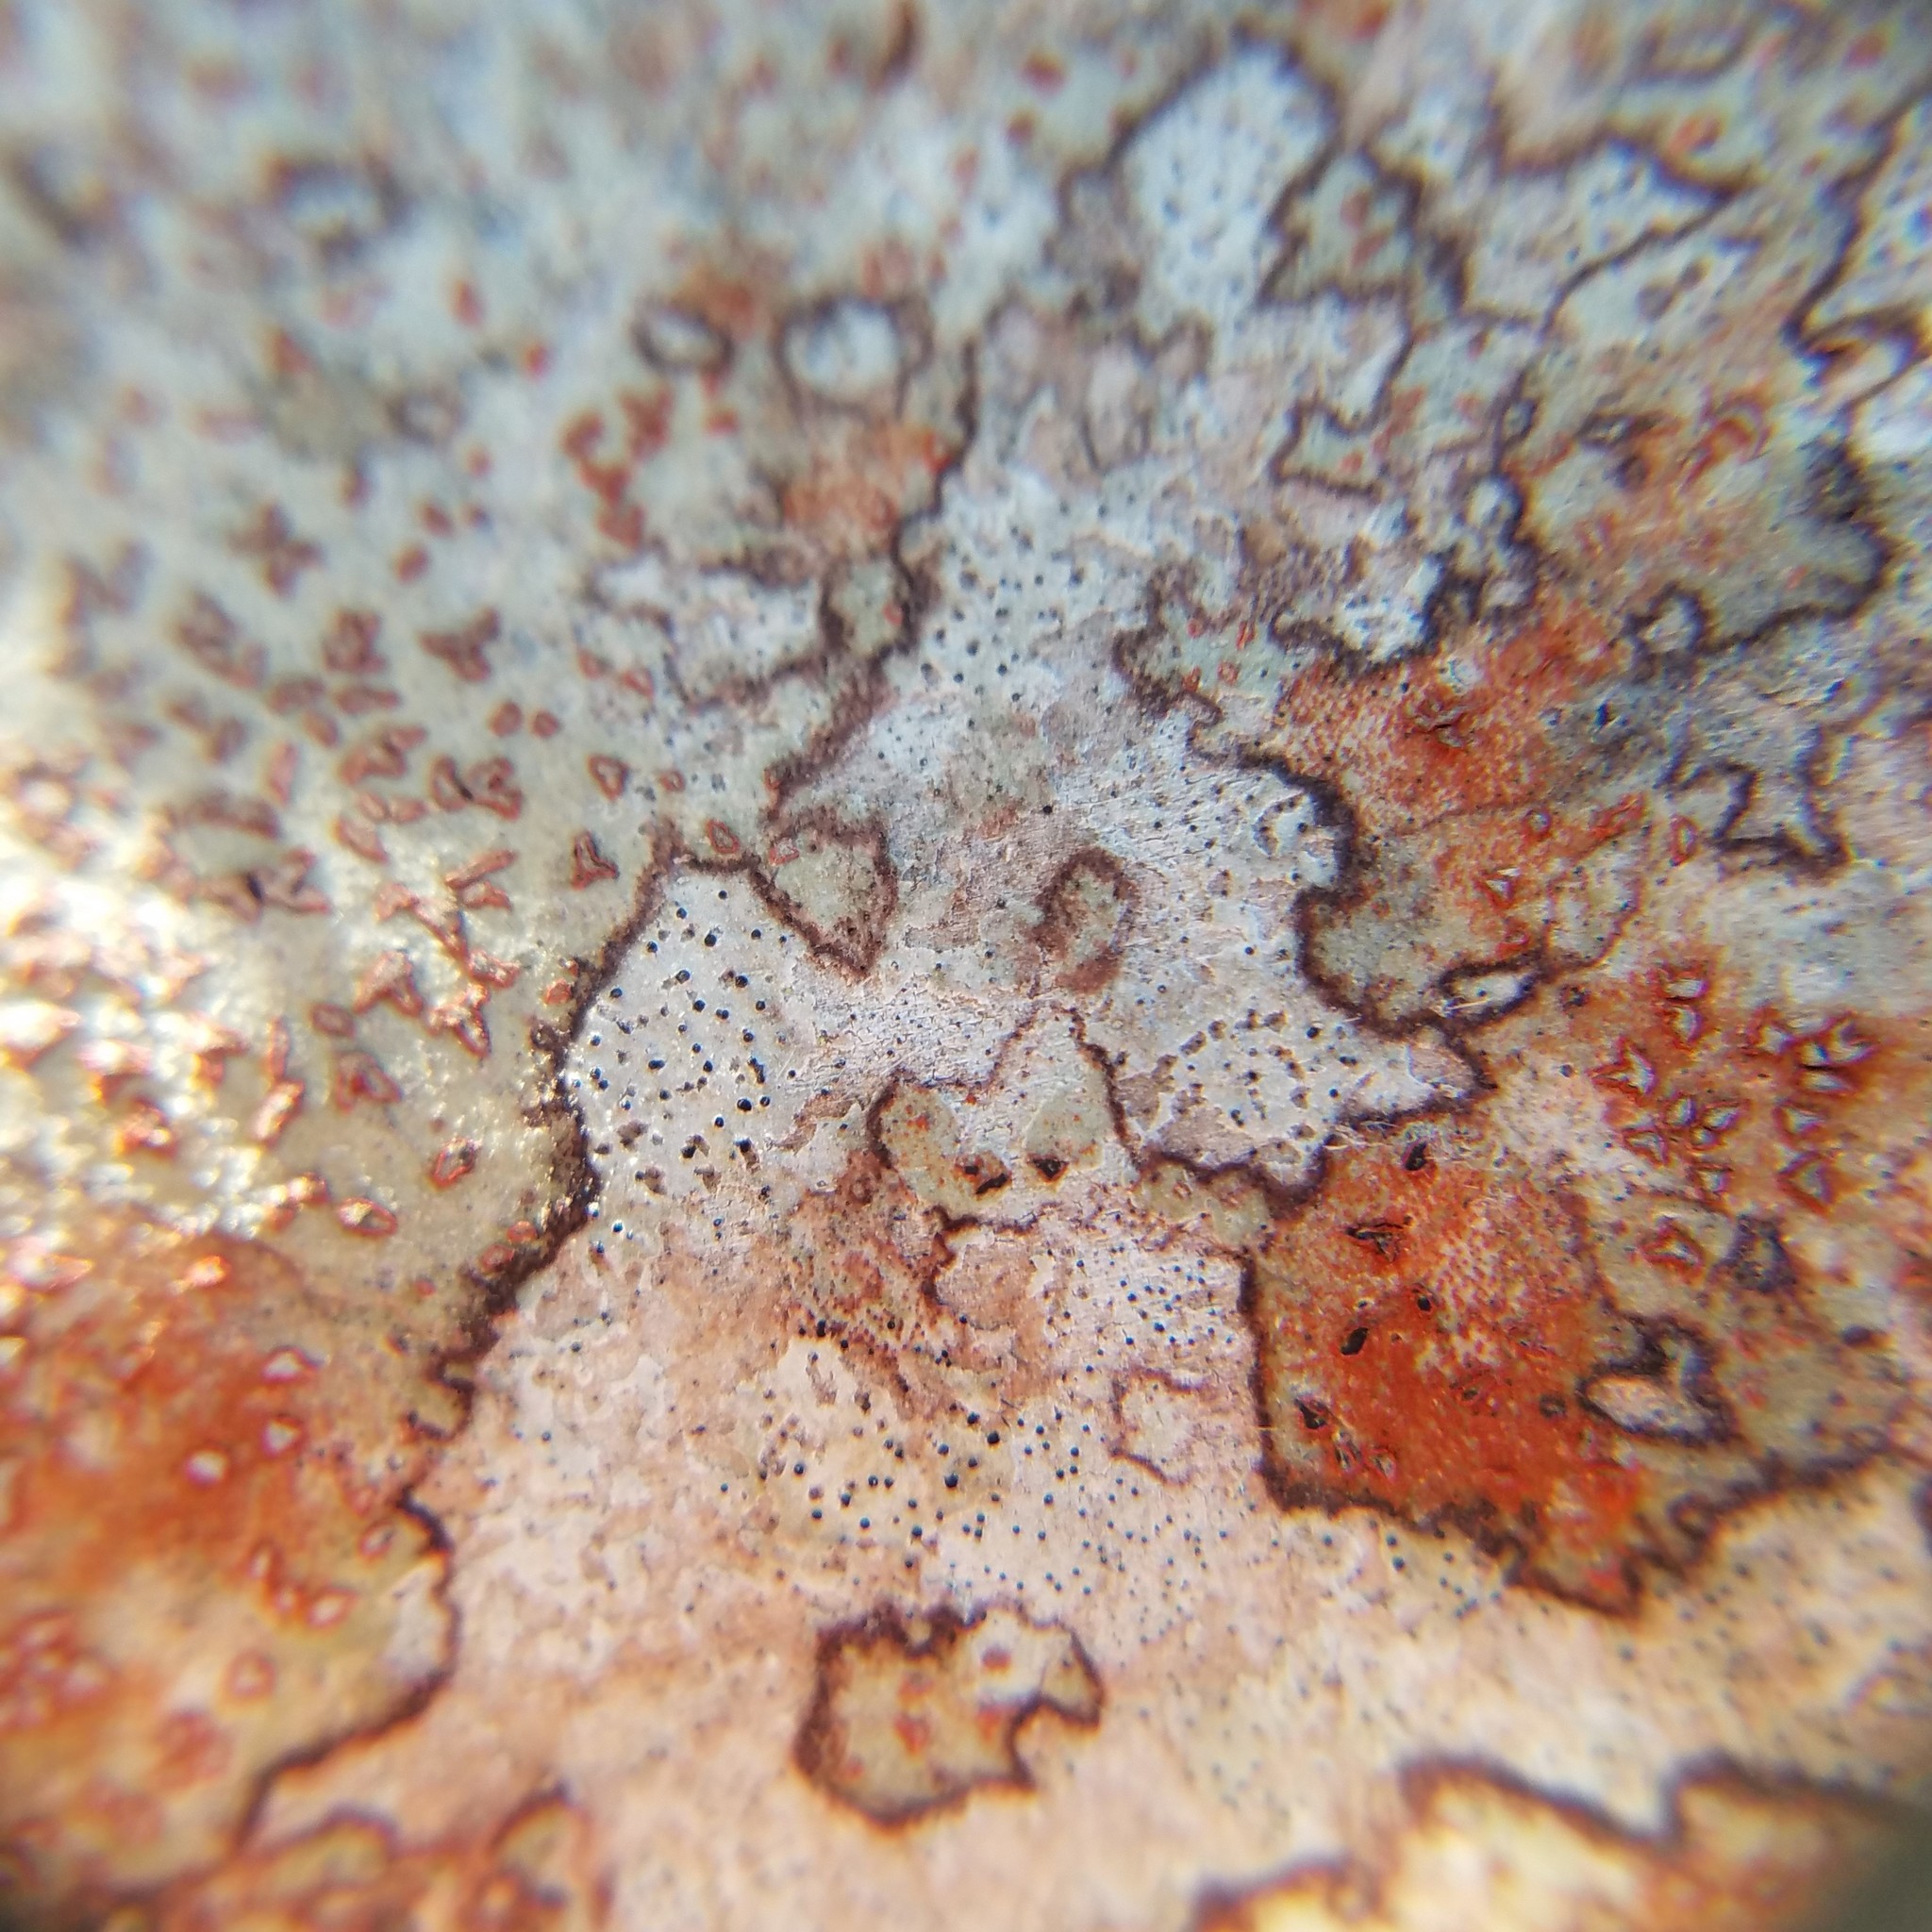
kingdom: Fungi
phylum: Ascomycota
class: Arthoniomycetes
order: Arthoniales
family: Arthoniaceae
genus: Arthonia
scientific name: Arthonia rubrocincta
